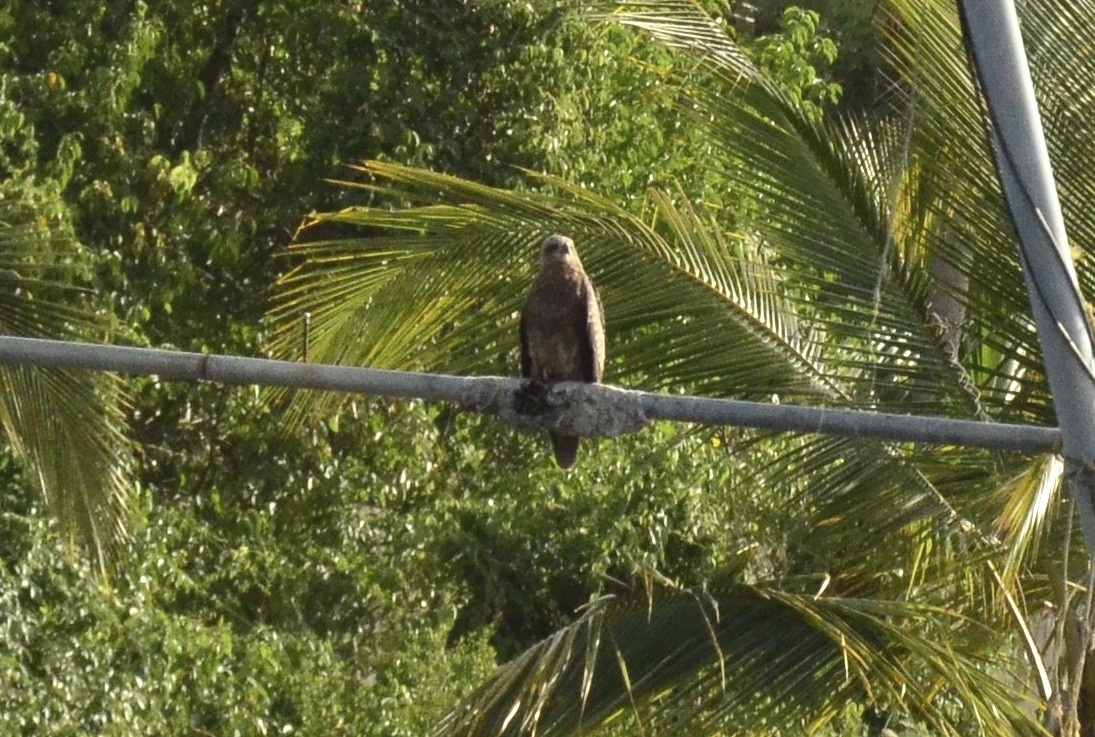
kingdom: Animalia
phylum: Chordata
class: Aves
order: Accipitriformes
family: Accipitridae
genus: Haliastur
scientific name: Haliastur indus
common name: Brahminy kite
